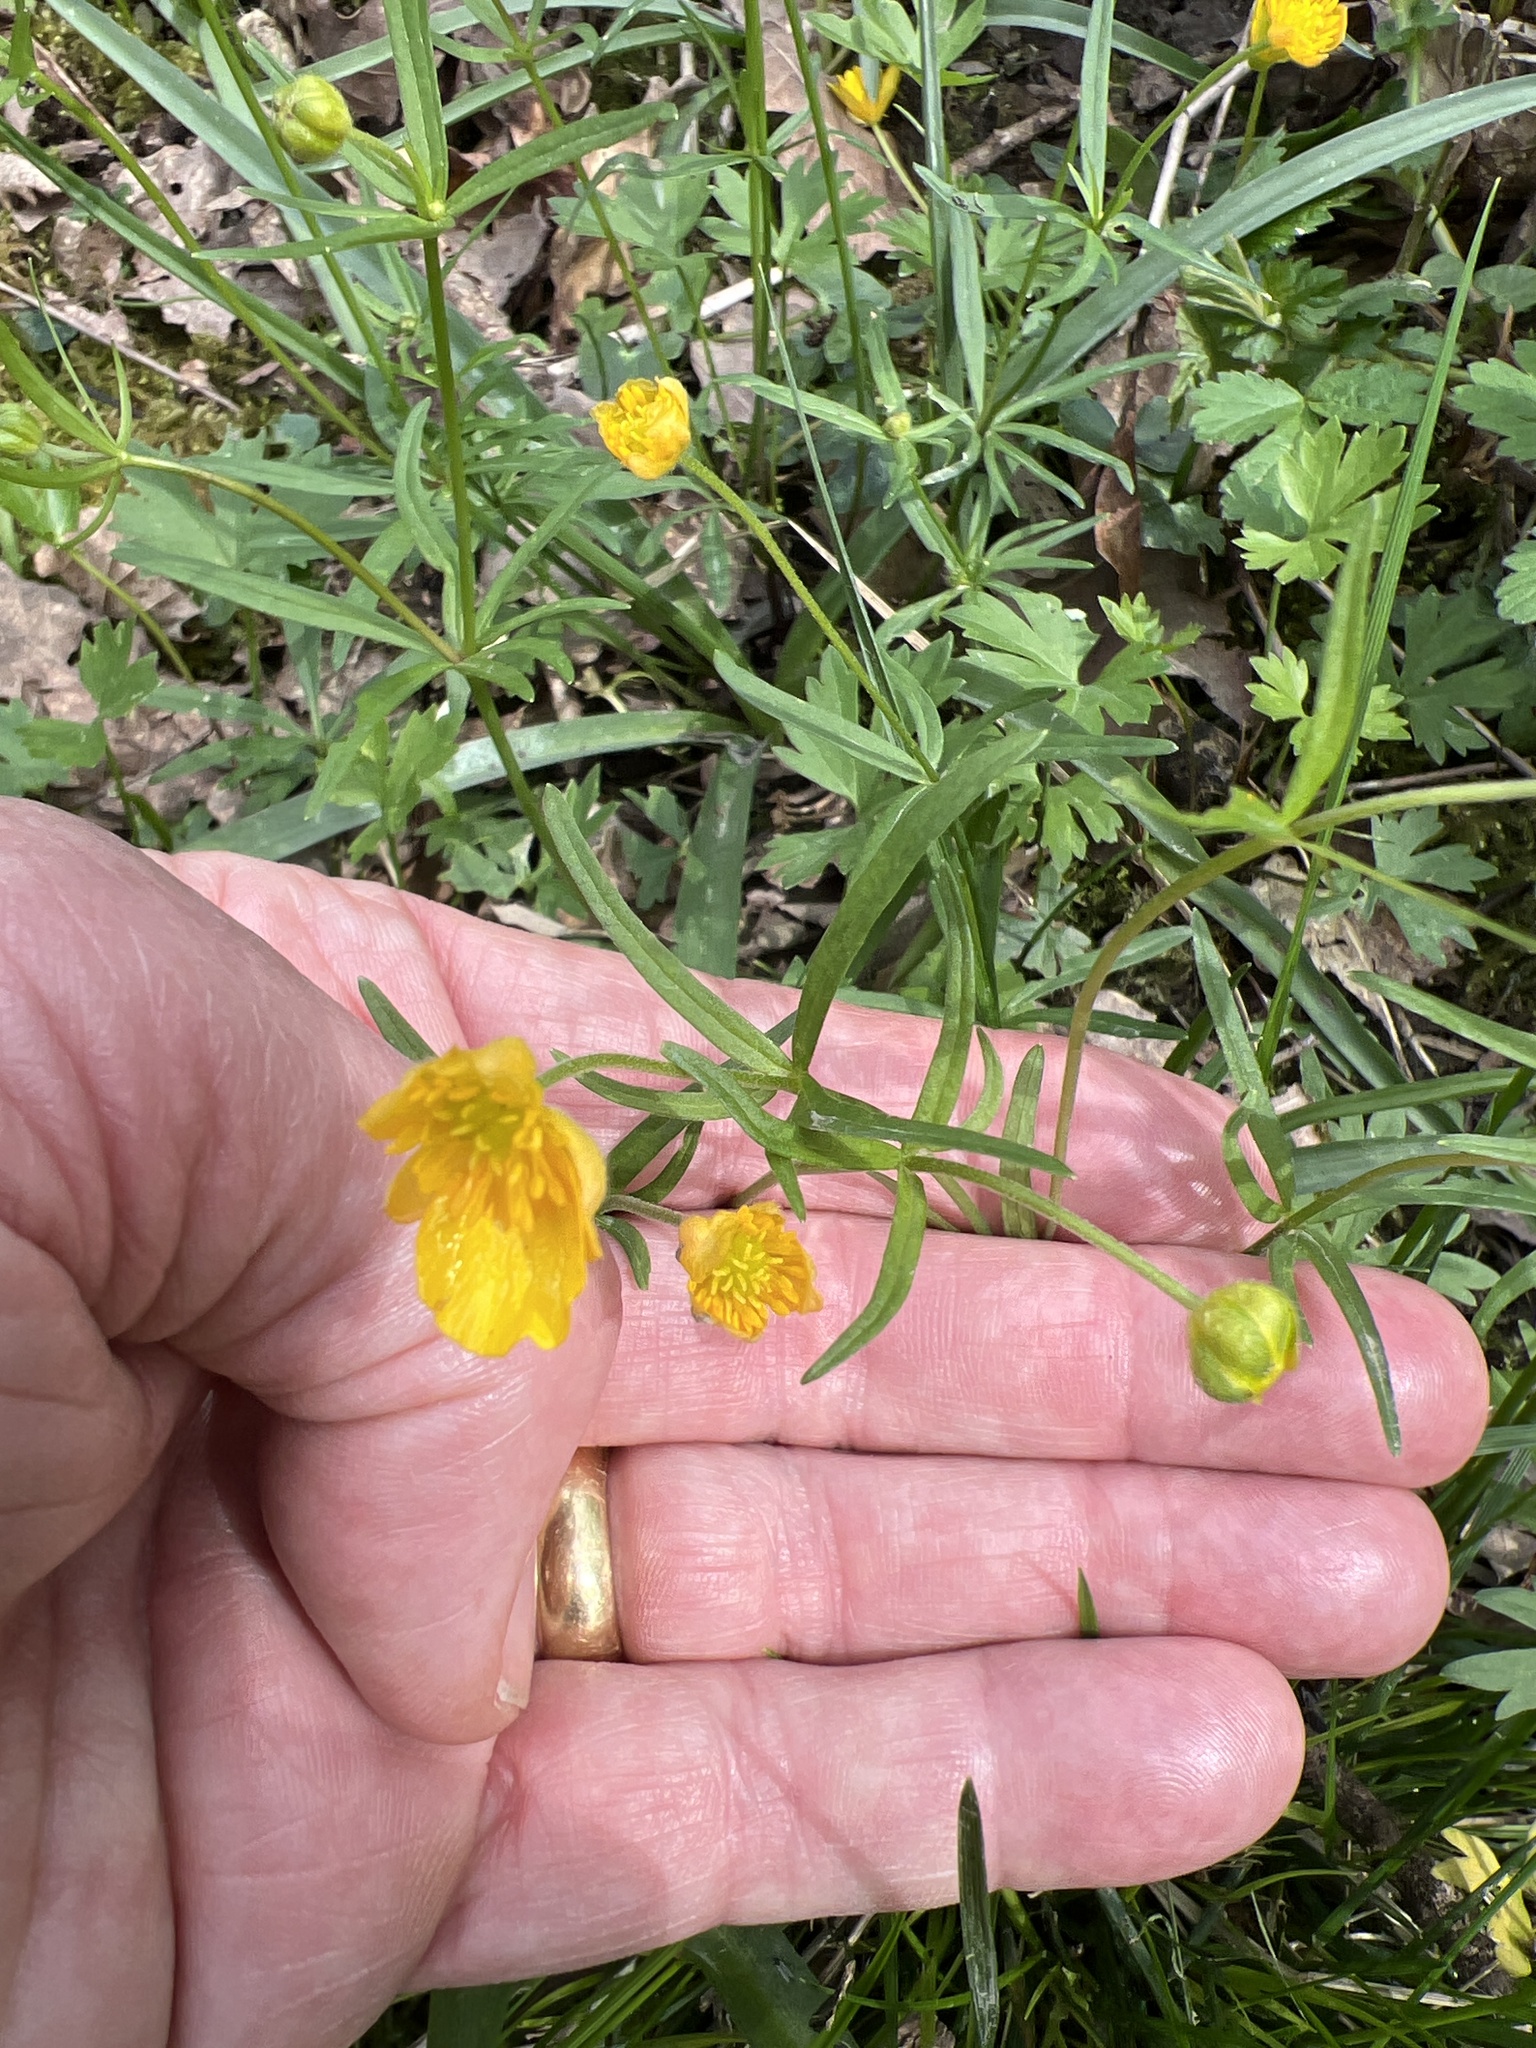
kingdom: Plantae
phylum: Tracheophyta
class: Magnoliopsida
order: Ranunculales
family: Ranunculaceae
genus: Ranunculus
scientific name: Ranunculus auricomus
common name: Goldilocks buttercup
